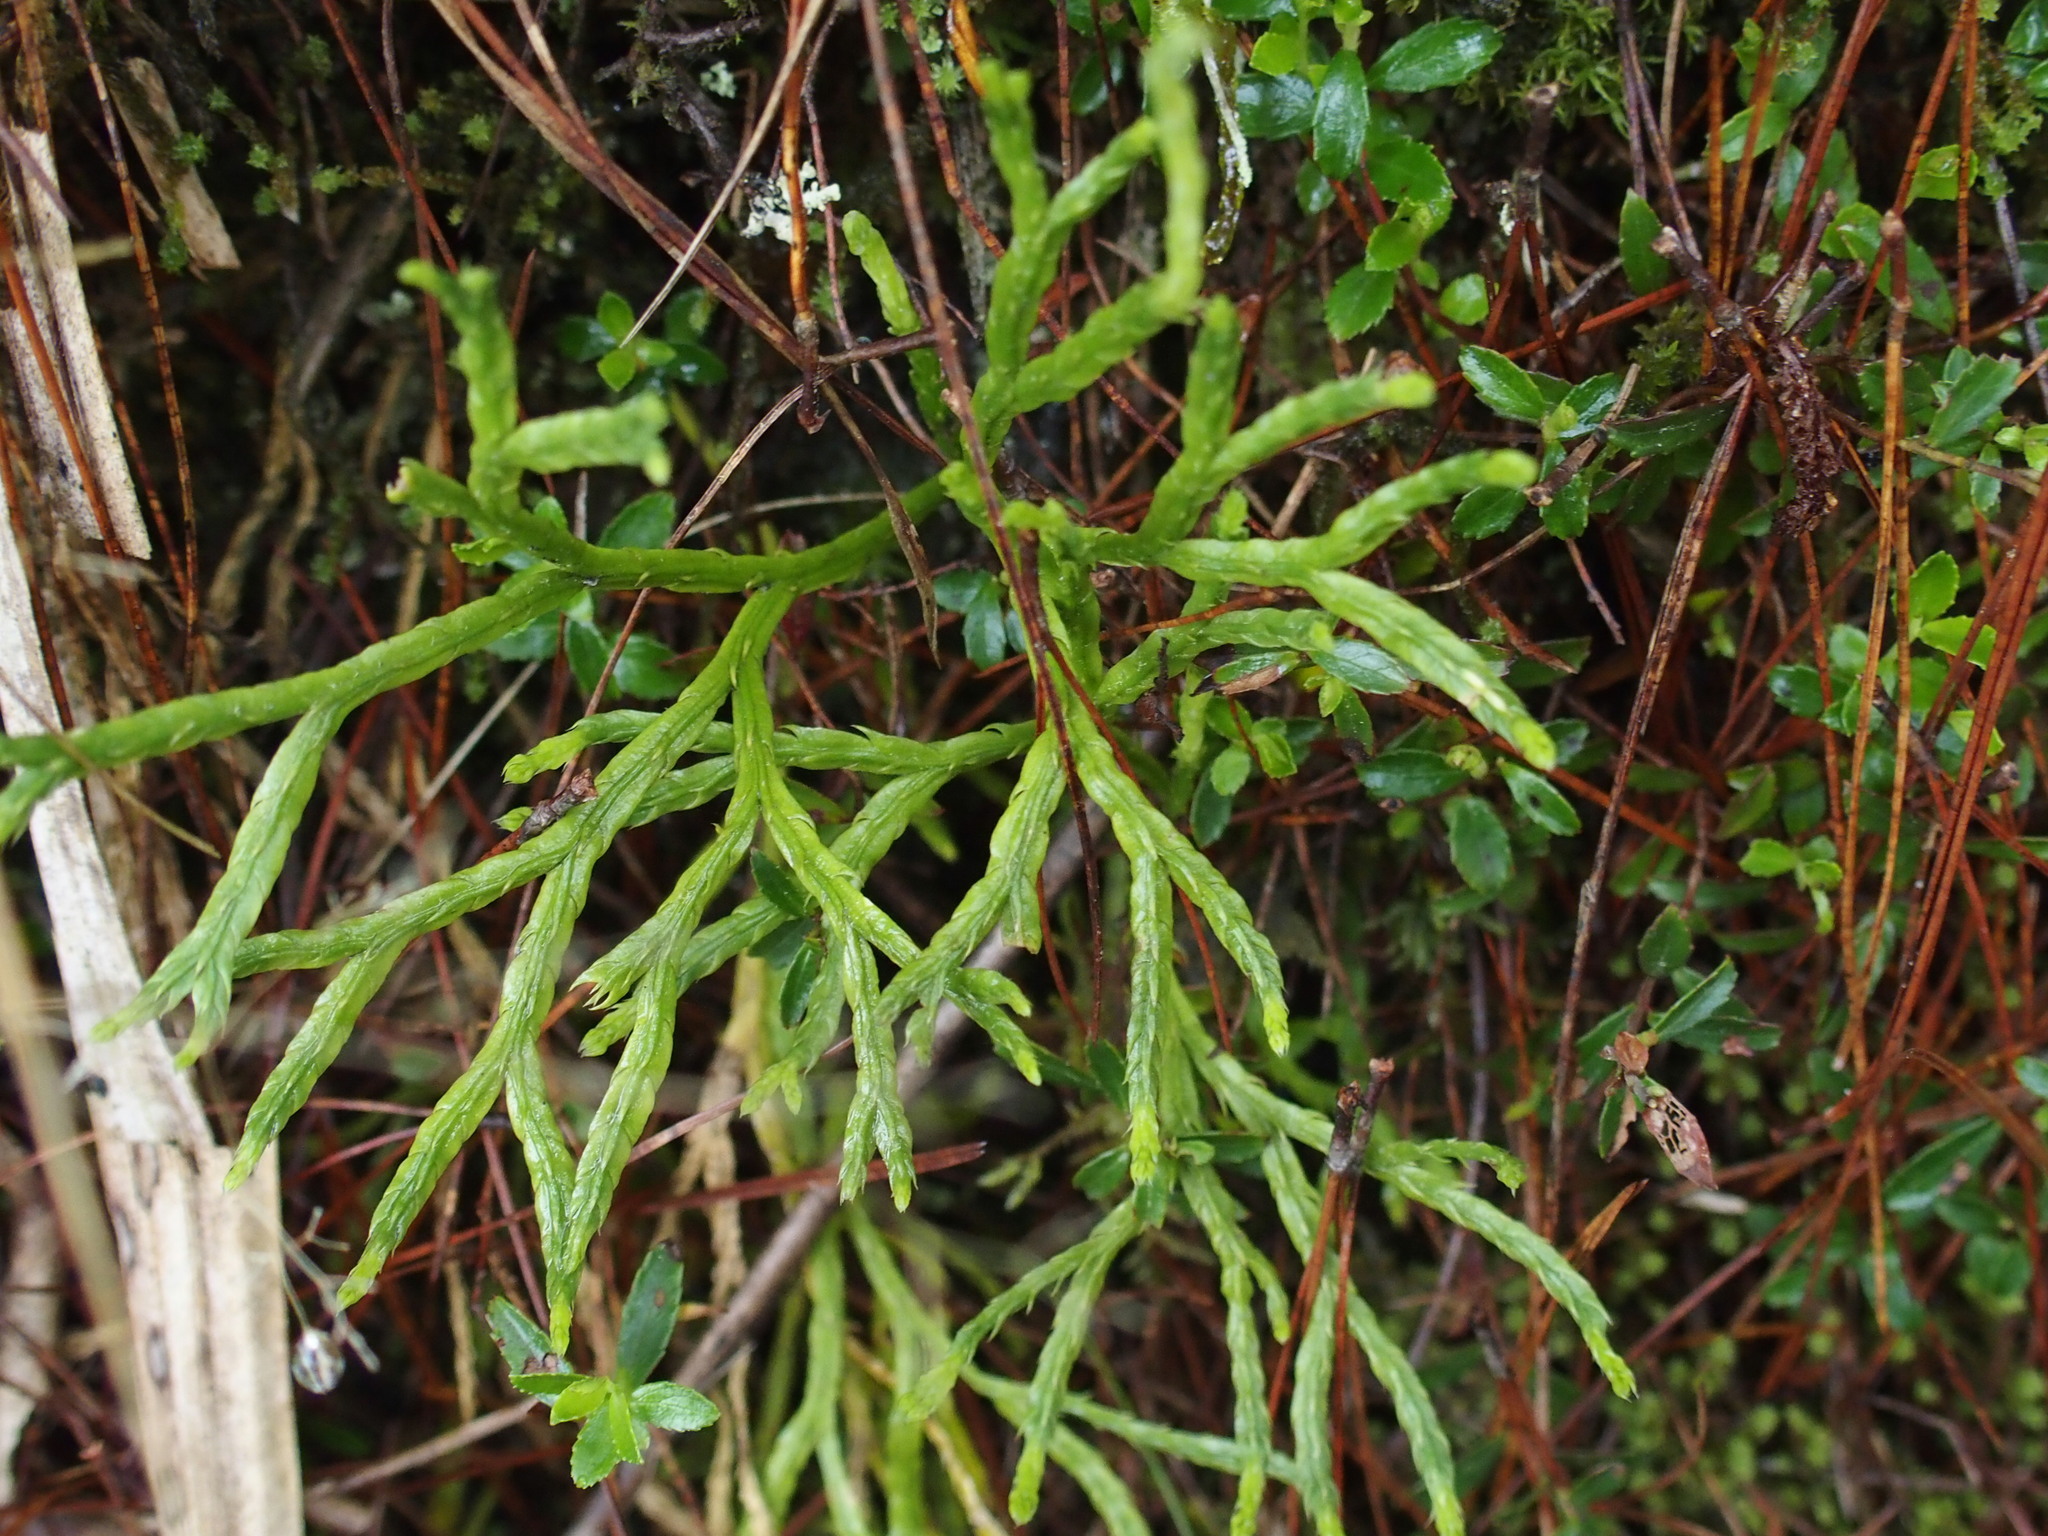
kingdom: Plantae
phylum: Tracheophyta
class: Lycopodiopsida
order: Lycopodiales
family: Lycopodiaceae
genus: Diphasiastrum
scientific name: Diphasiastrum multispicatum
